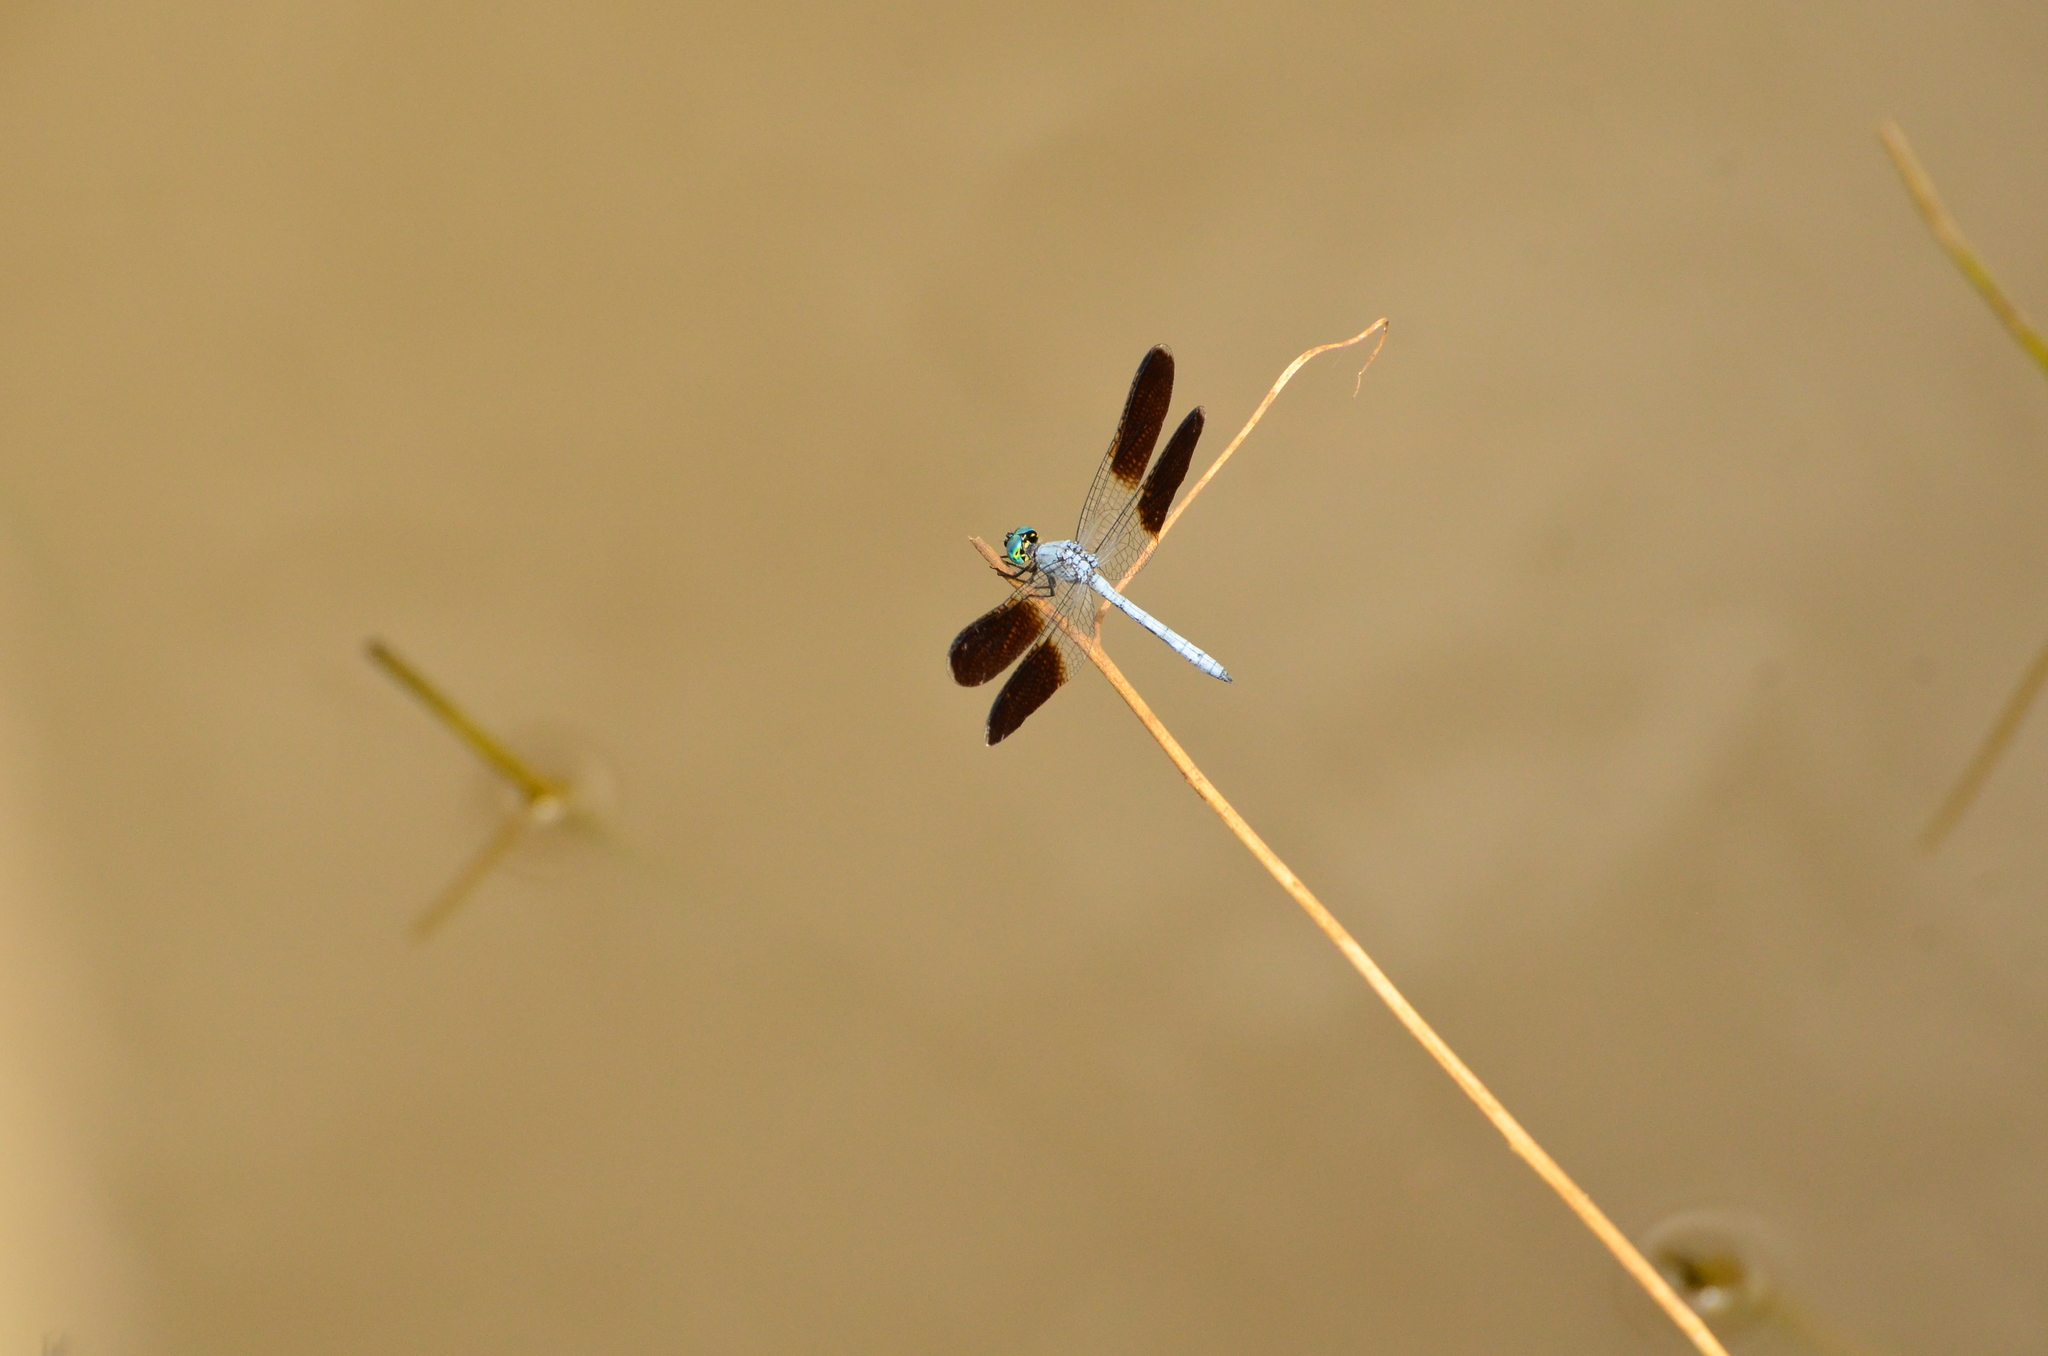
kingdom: Animalia
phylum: Arthropoda
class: Insecta
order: Odonata
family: Libellulidae
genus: Tetrathemis
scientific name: Tetrathemis polleni
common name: Black-splashed elf
